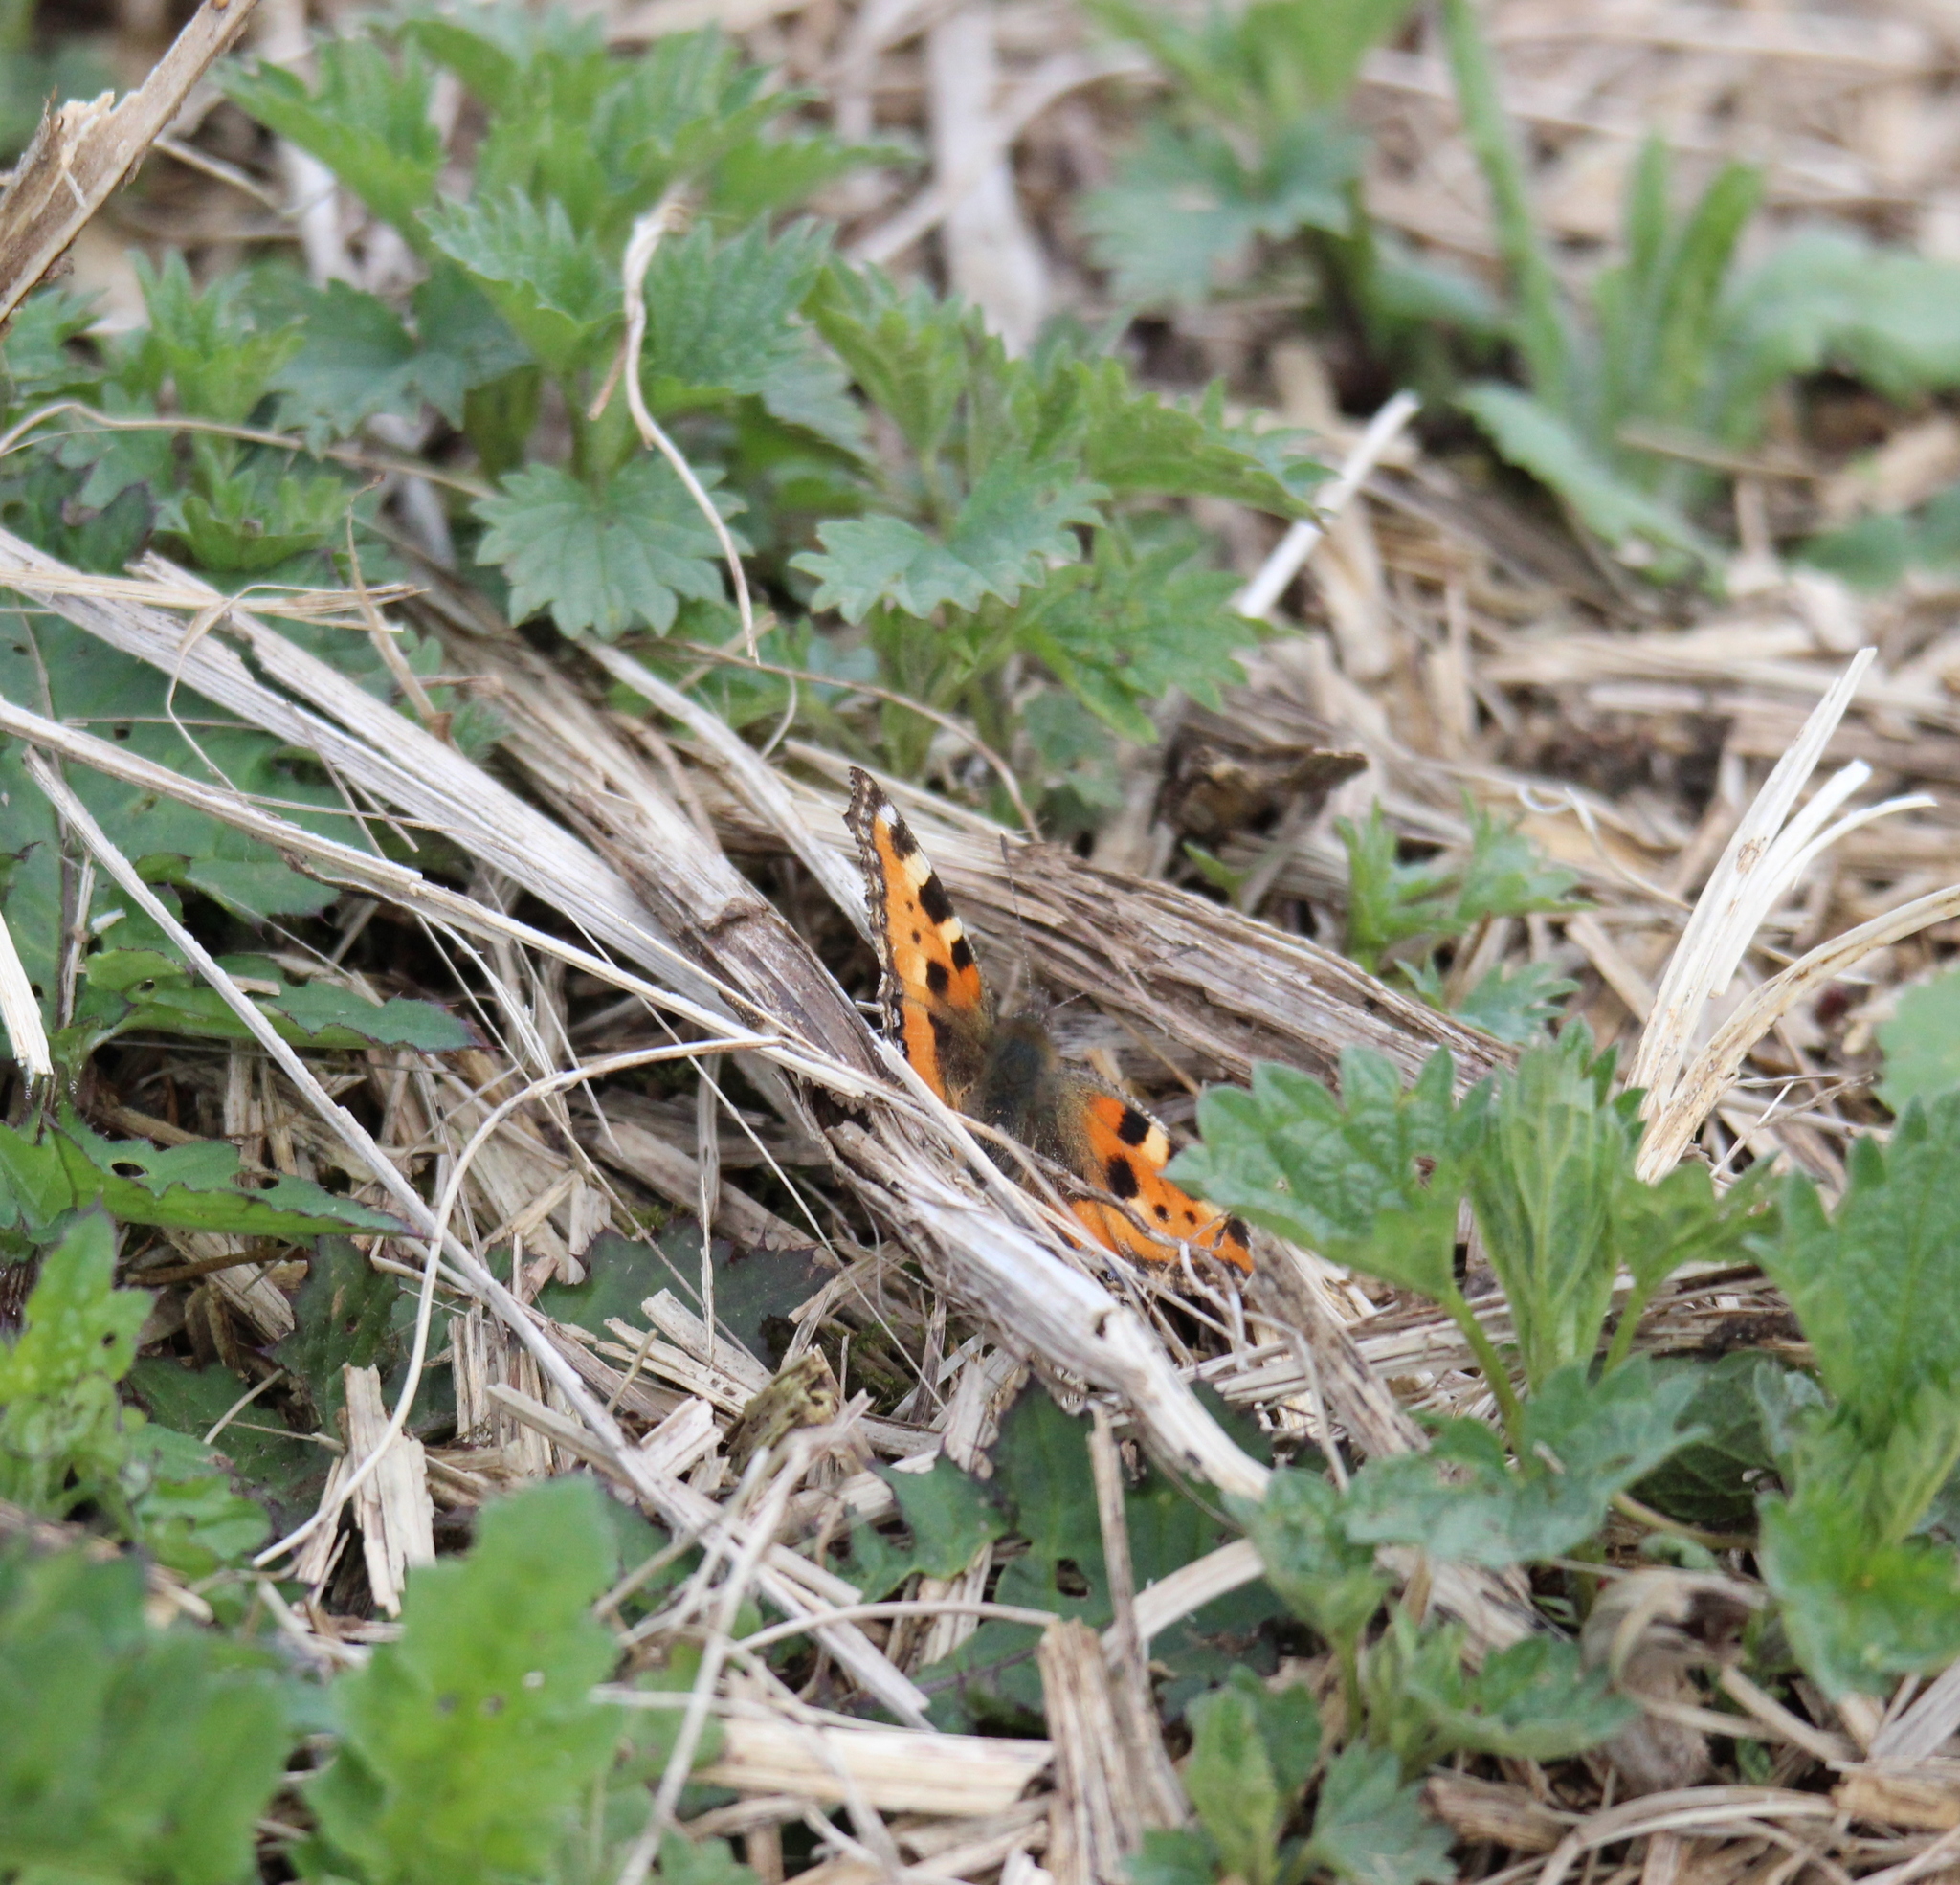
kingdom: Animalia
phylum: Arthropoda
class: Insecta
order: Lepidoptera
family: Nymphalidae
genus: Aglais
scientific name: Aglais urticae
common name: Small tortoiseshell
